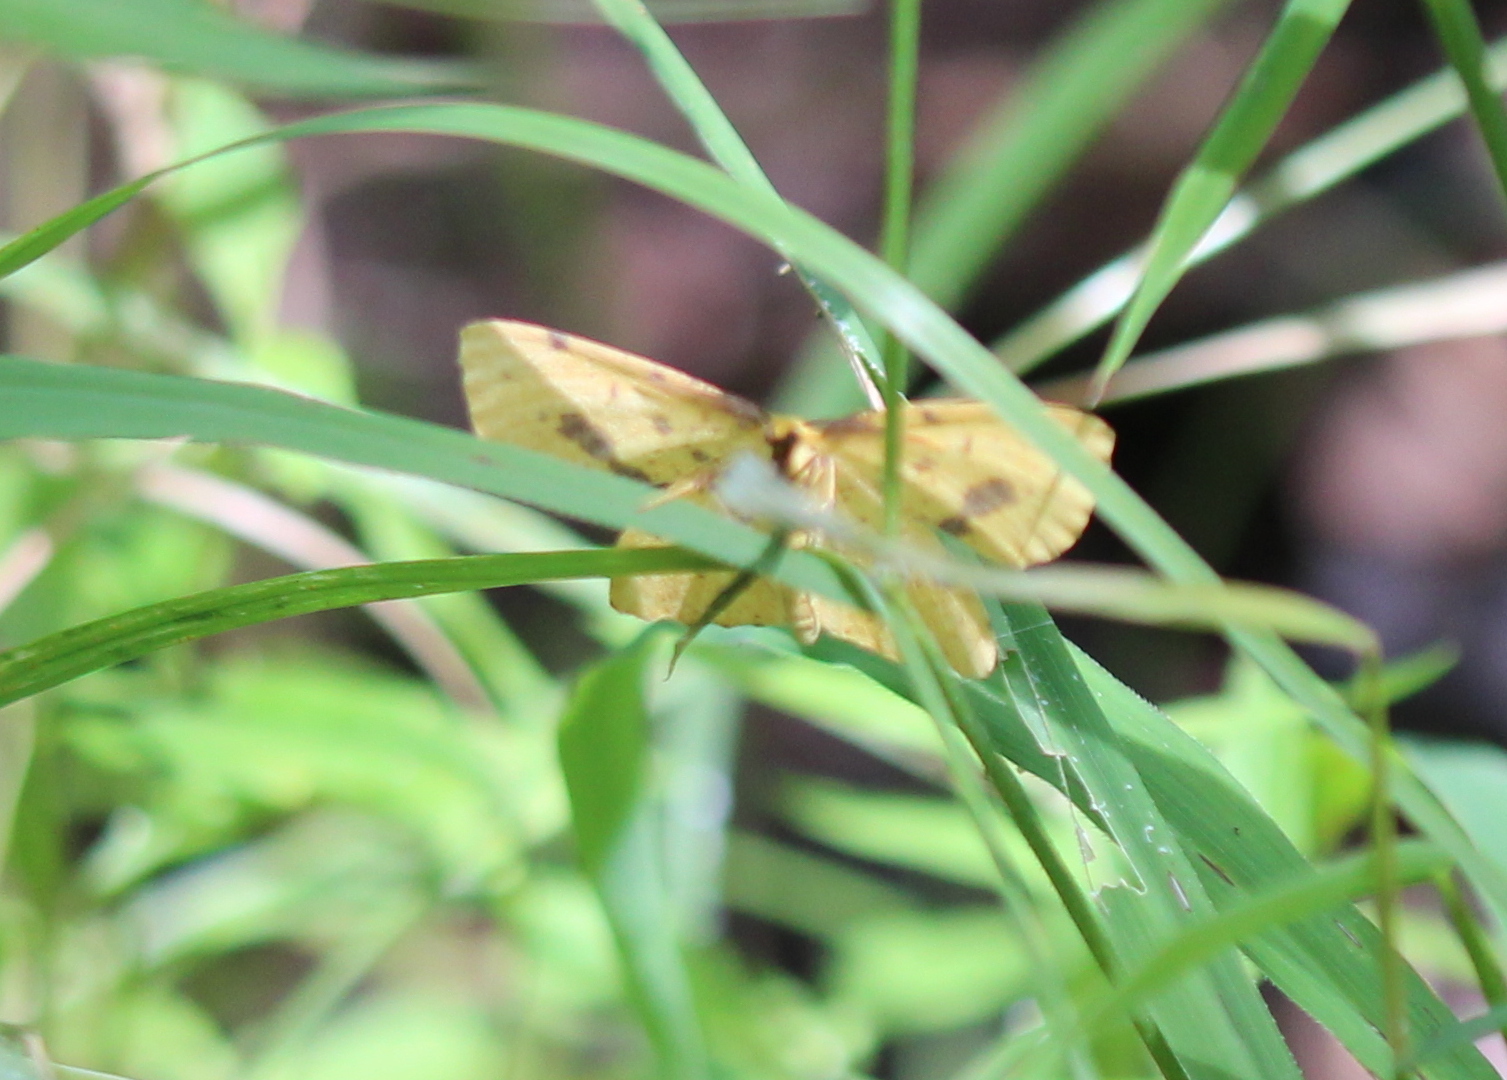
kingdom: Animalia
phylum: Arthropoda
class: Insecta
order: Lepidoptera
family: Geometridae
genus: Xanthotype
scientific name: Xanthotype
